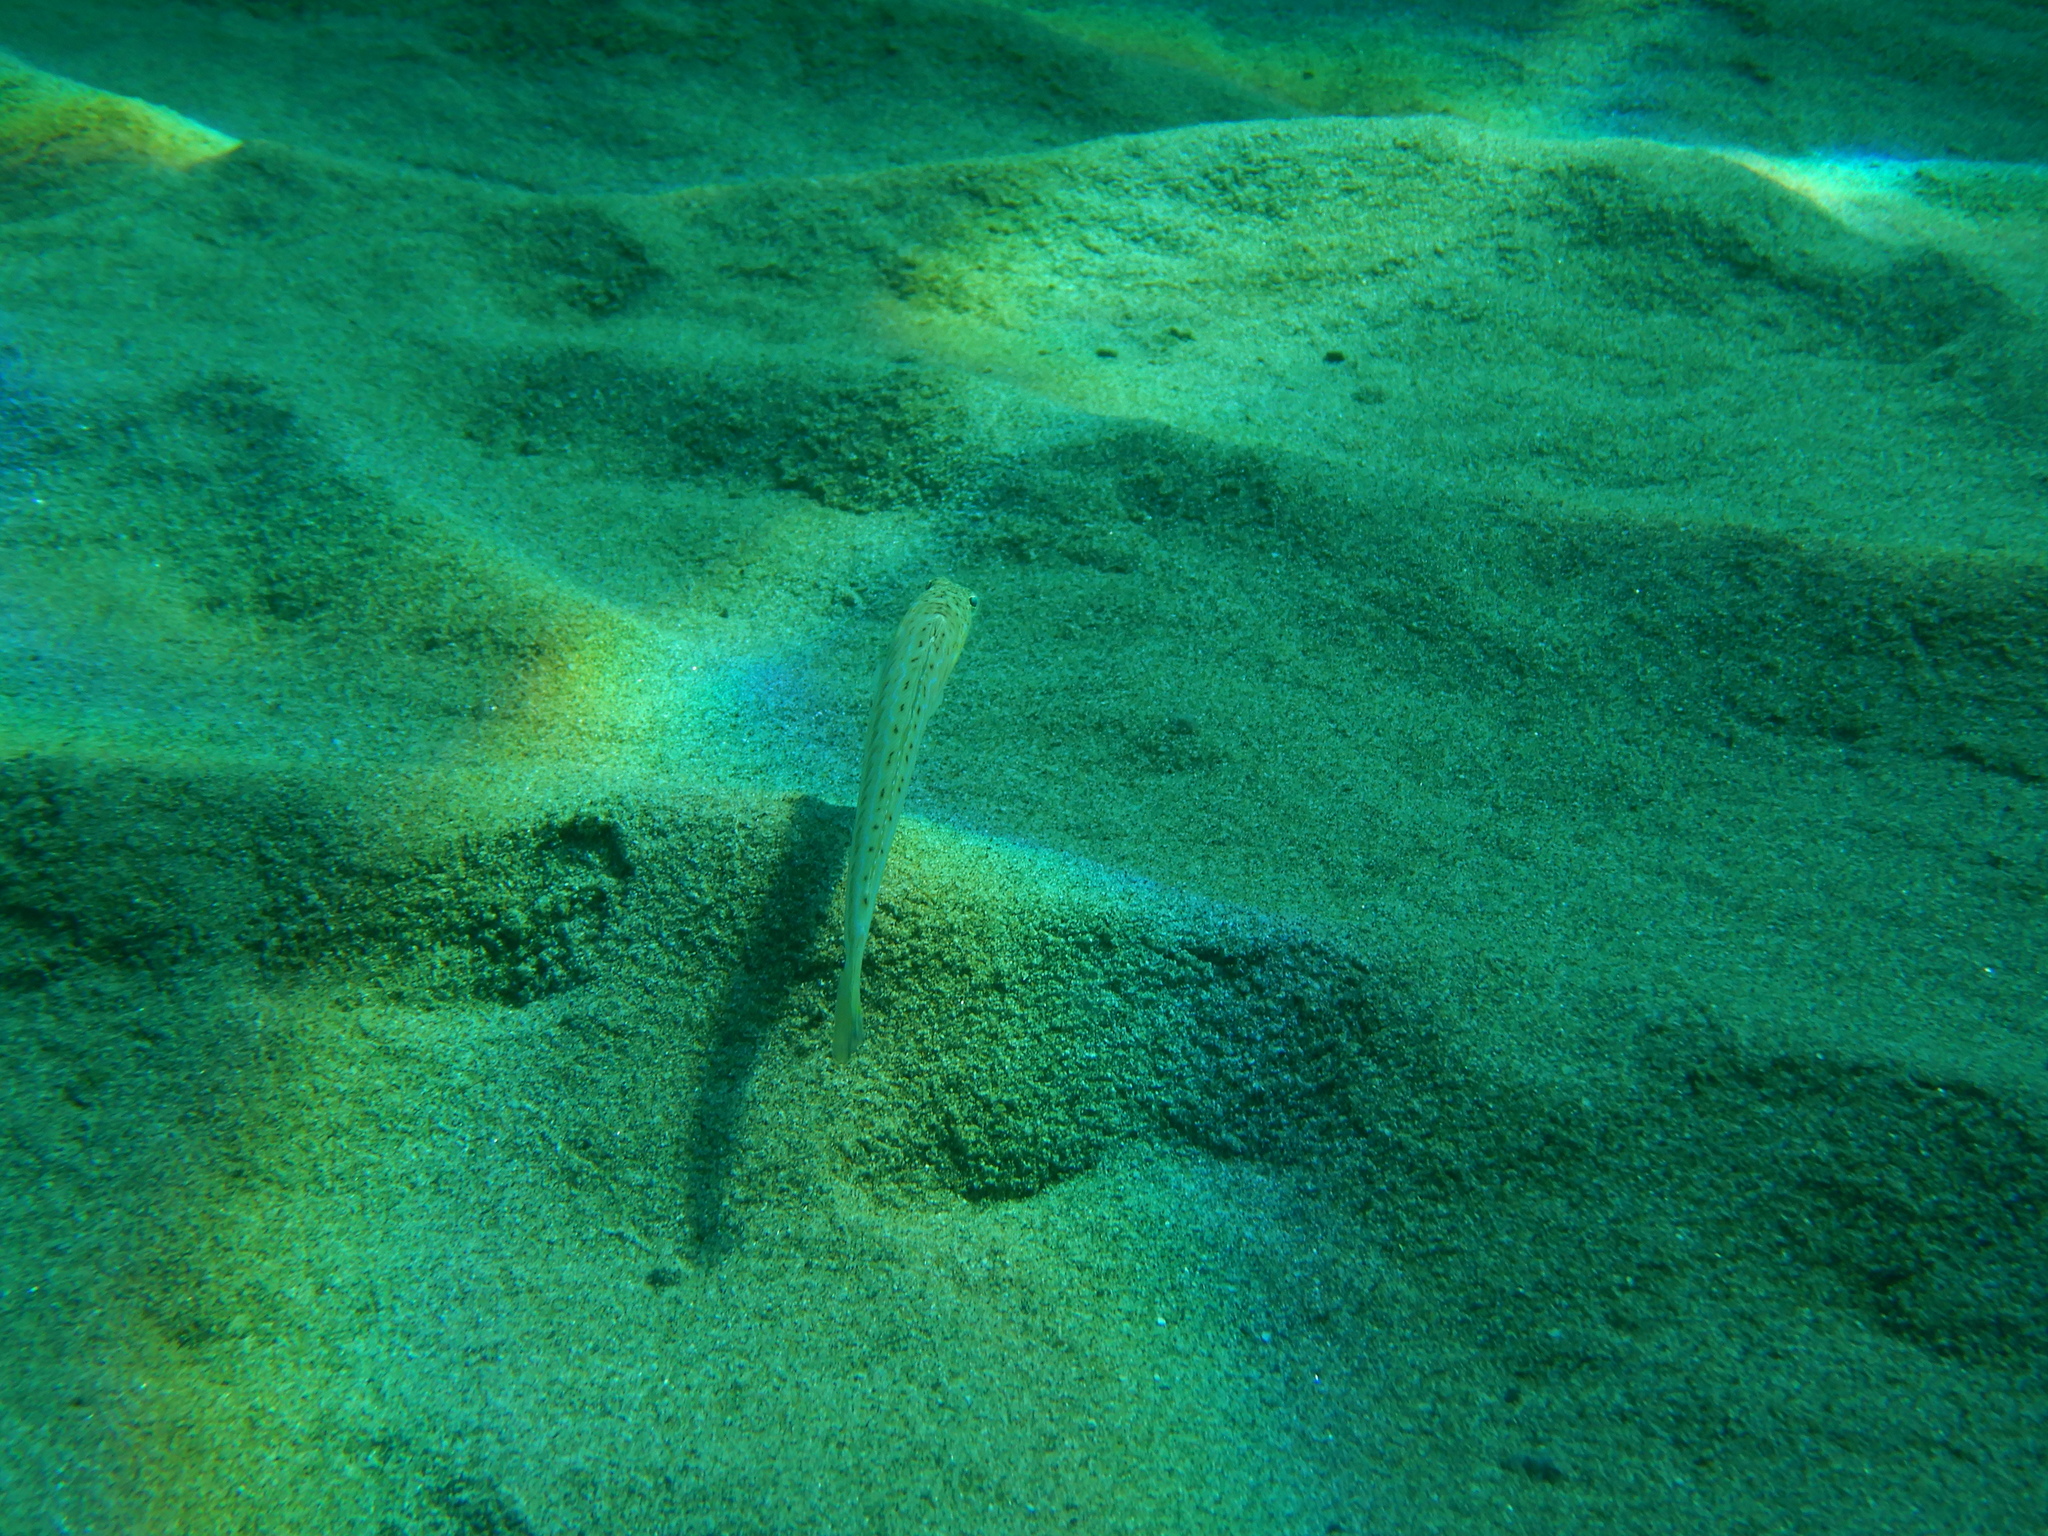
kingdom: Animalia
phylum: Chordata
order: Perciformes
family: Trachinidae
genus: Trachinus
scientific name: Trachinus draco
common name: Greater weever
